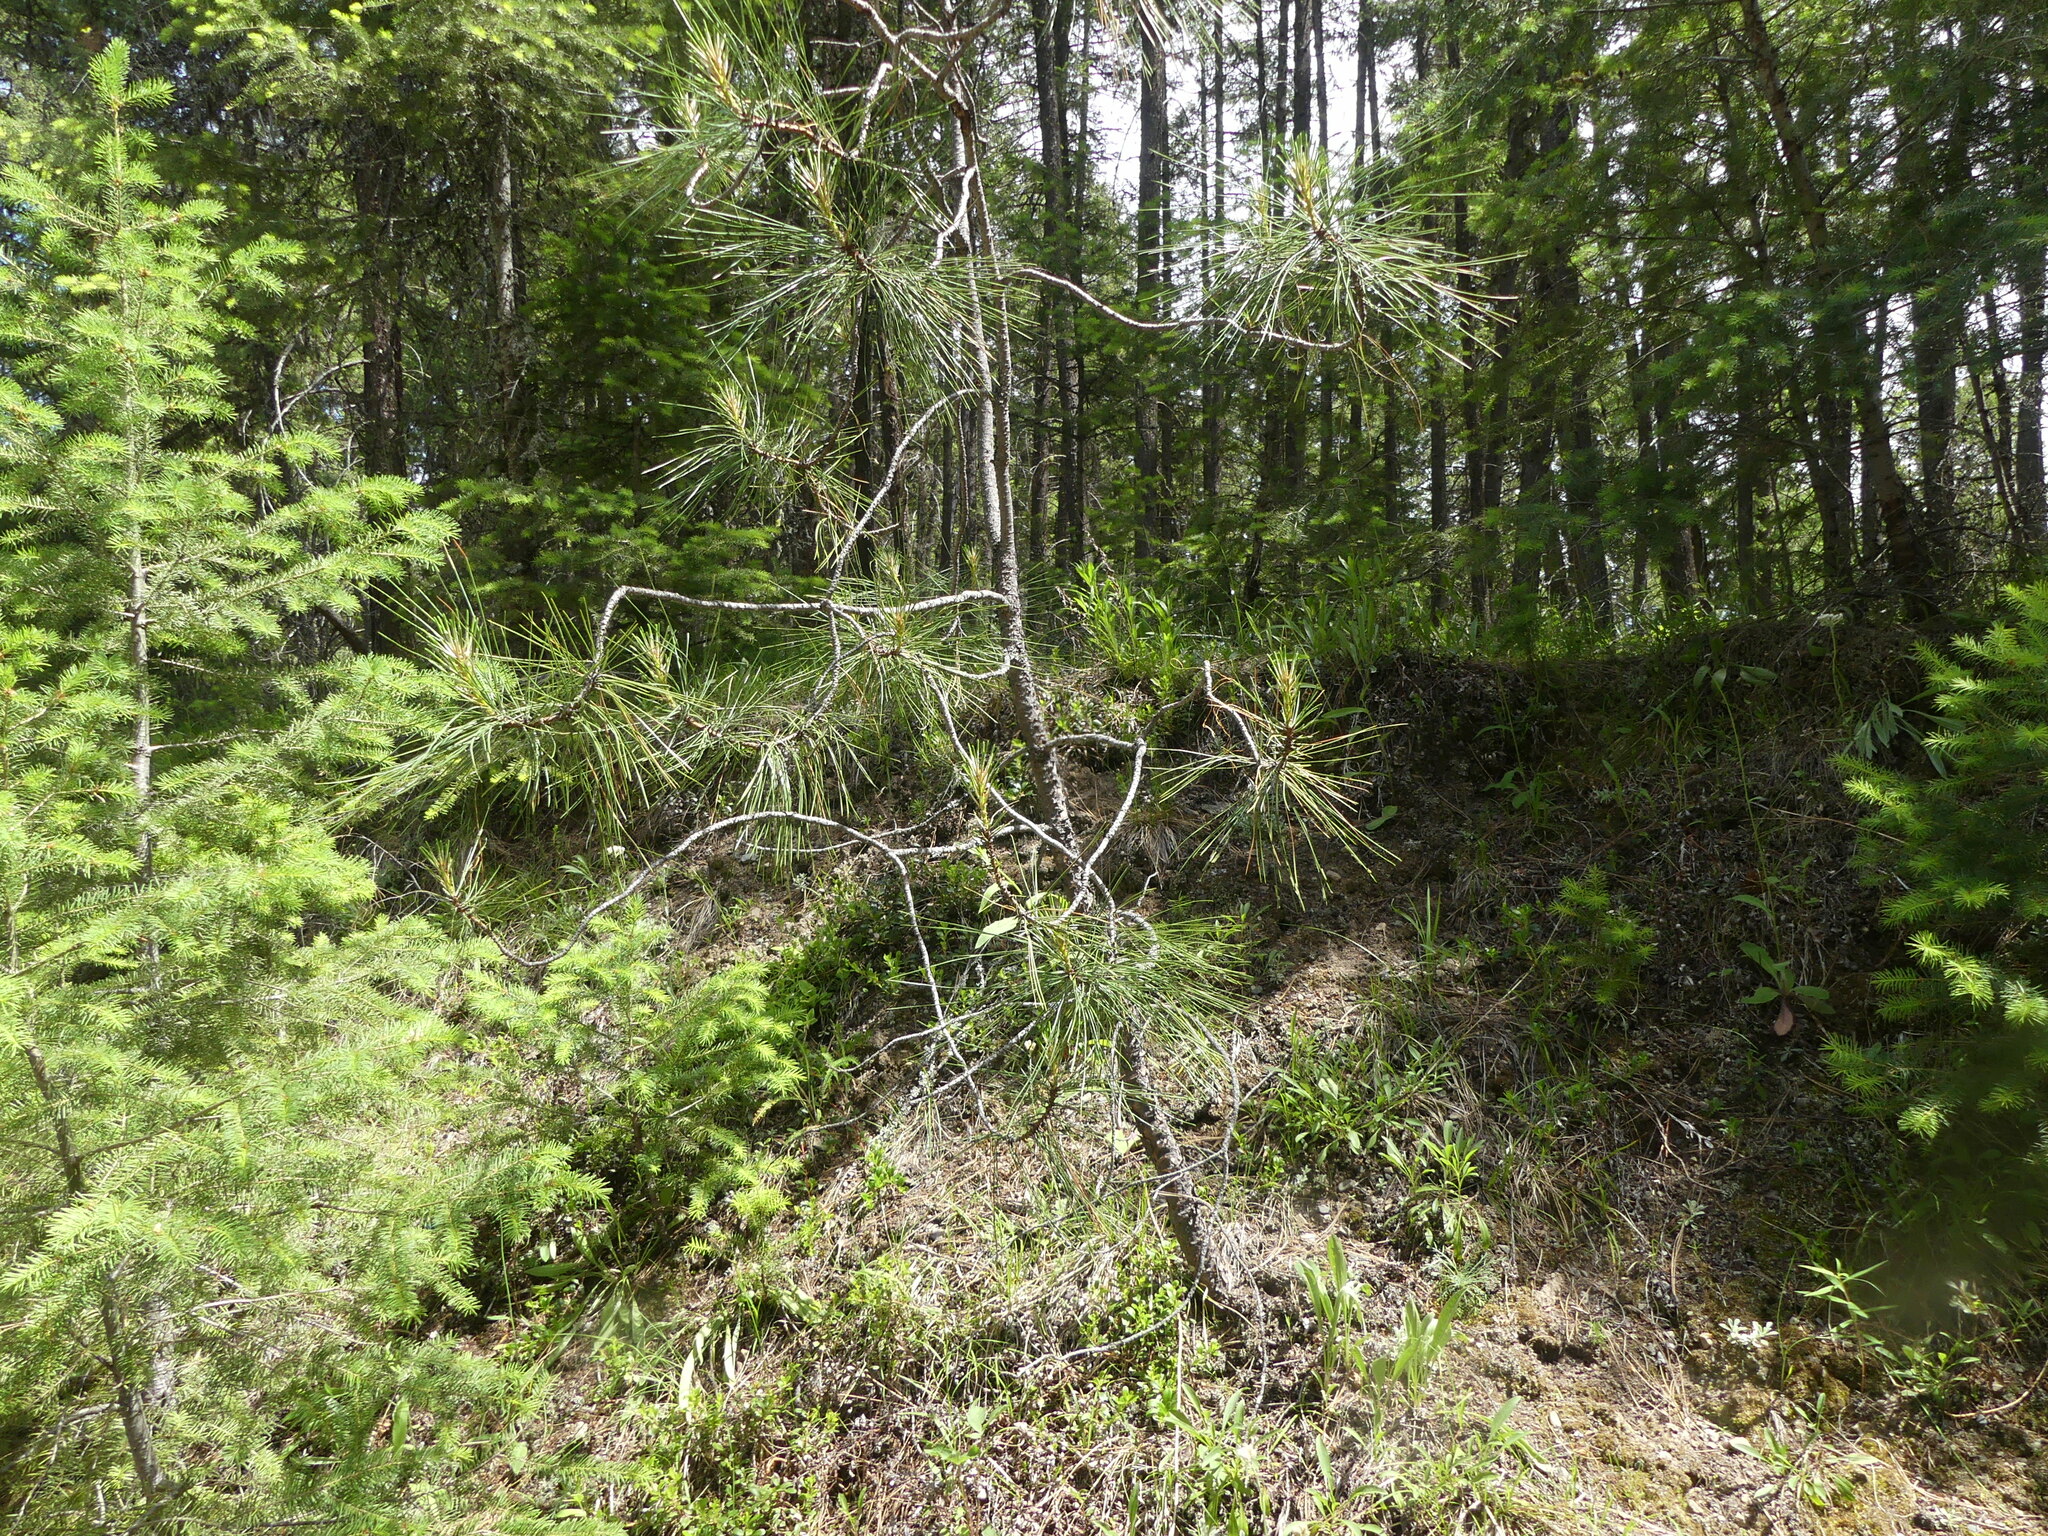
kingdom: Plantae
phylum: Tracheophyta
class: Pinopsida
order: Pinales
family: Pinaceae
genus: Pinus
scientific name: Pinus ponderosa
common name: Western yellow-pine
